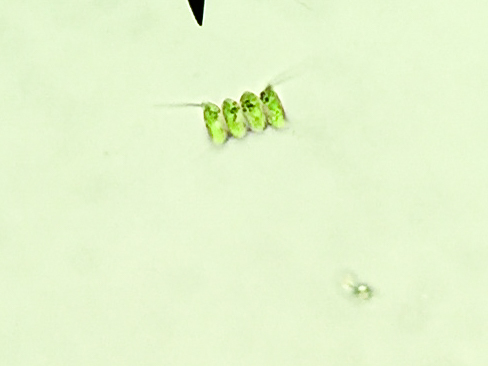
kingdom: Plantae
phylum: Chlorophyta
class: Chlorophyceae
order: Sphaeropleales
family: Scenedesmaceae
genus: Desmodesmus
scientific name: Desmodesmus communis
